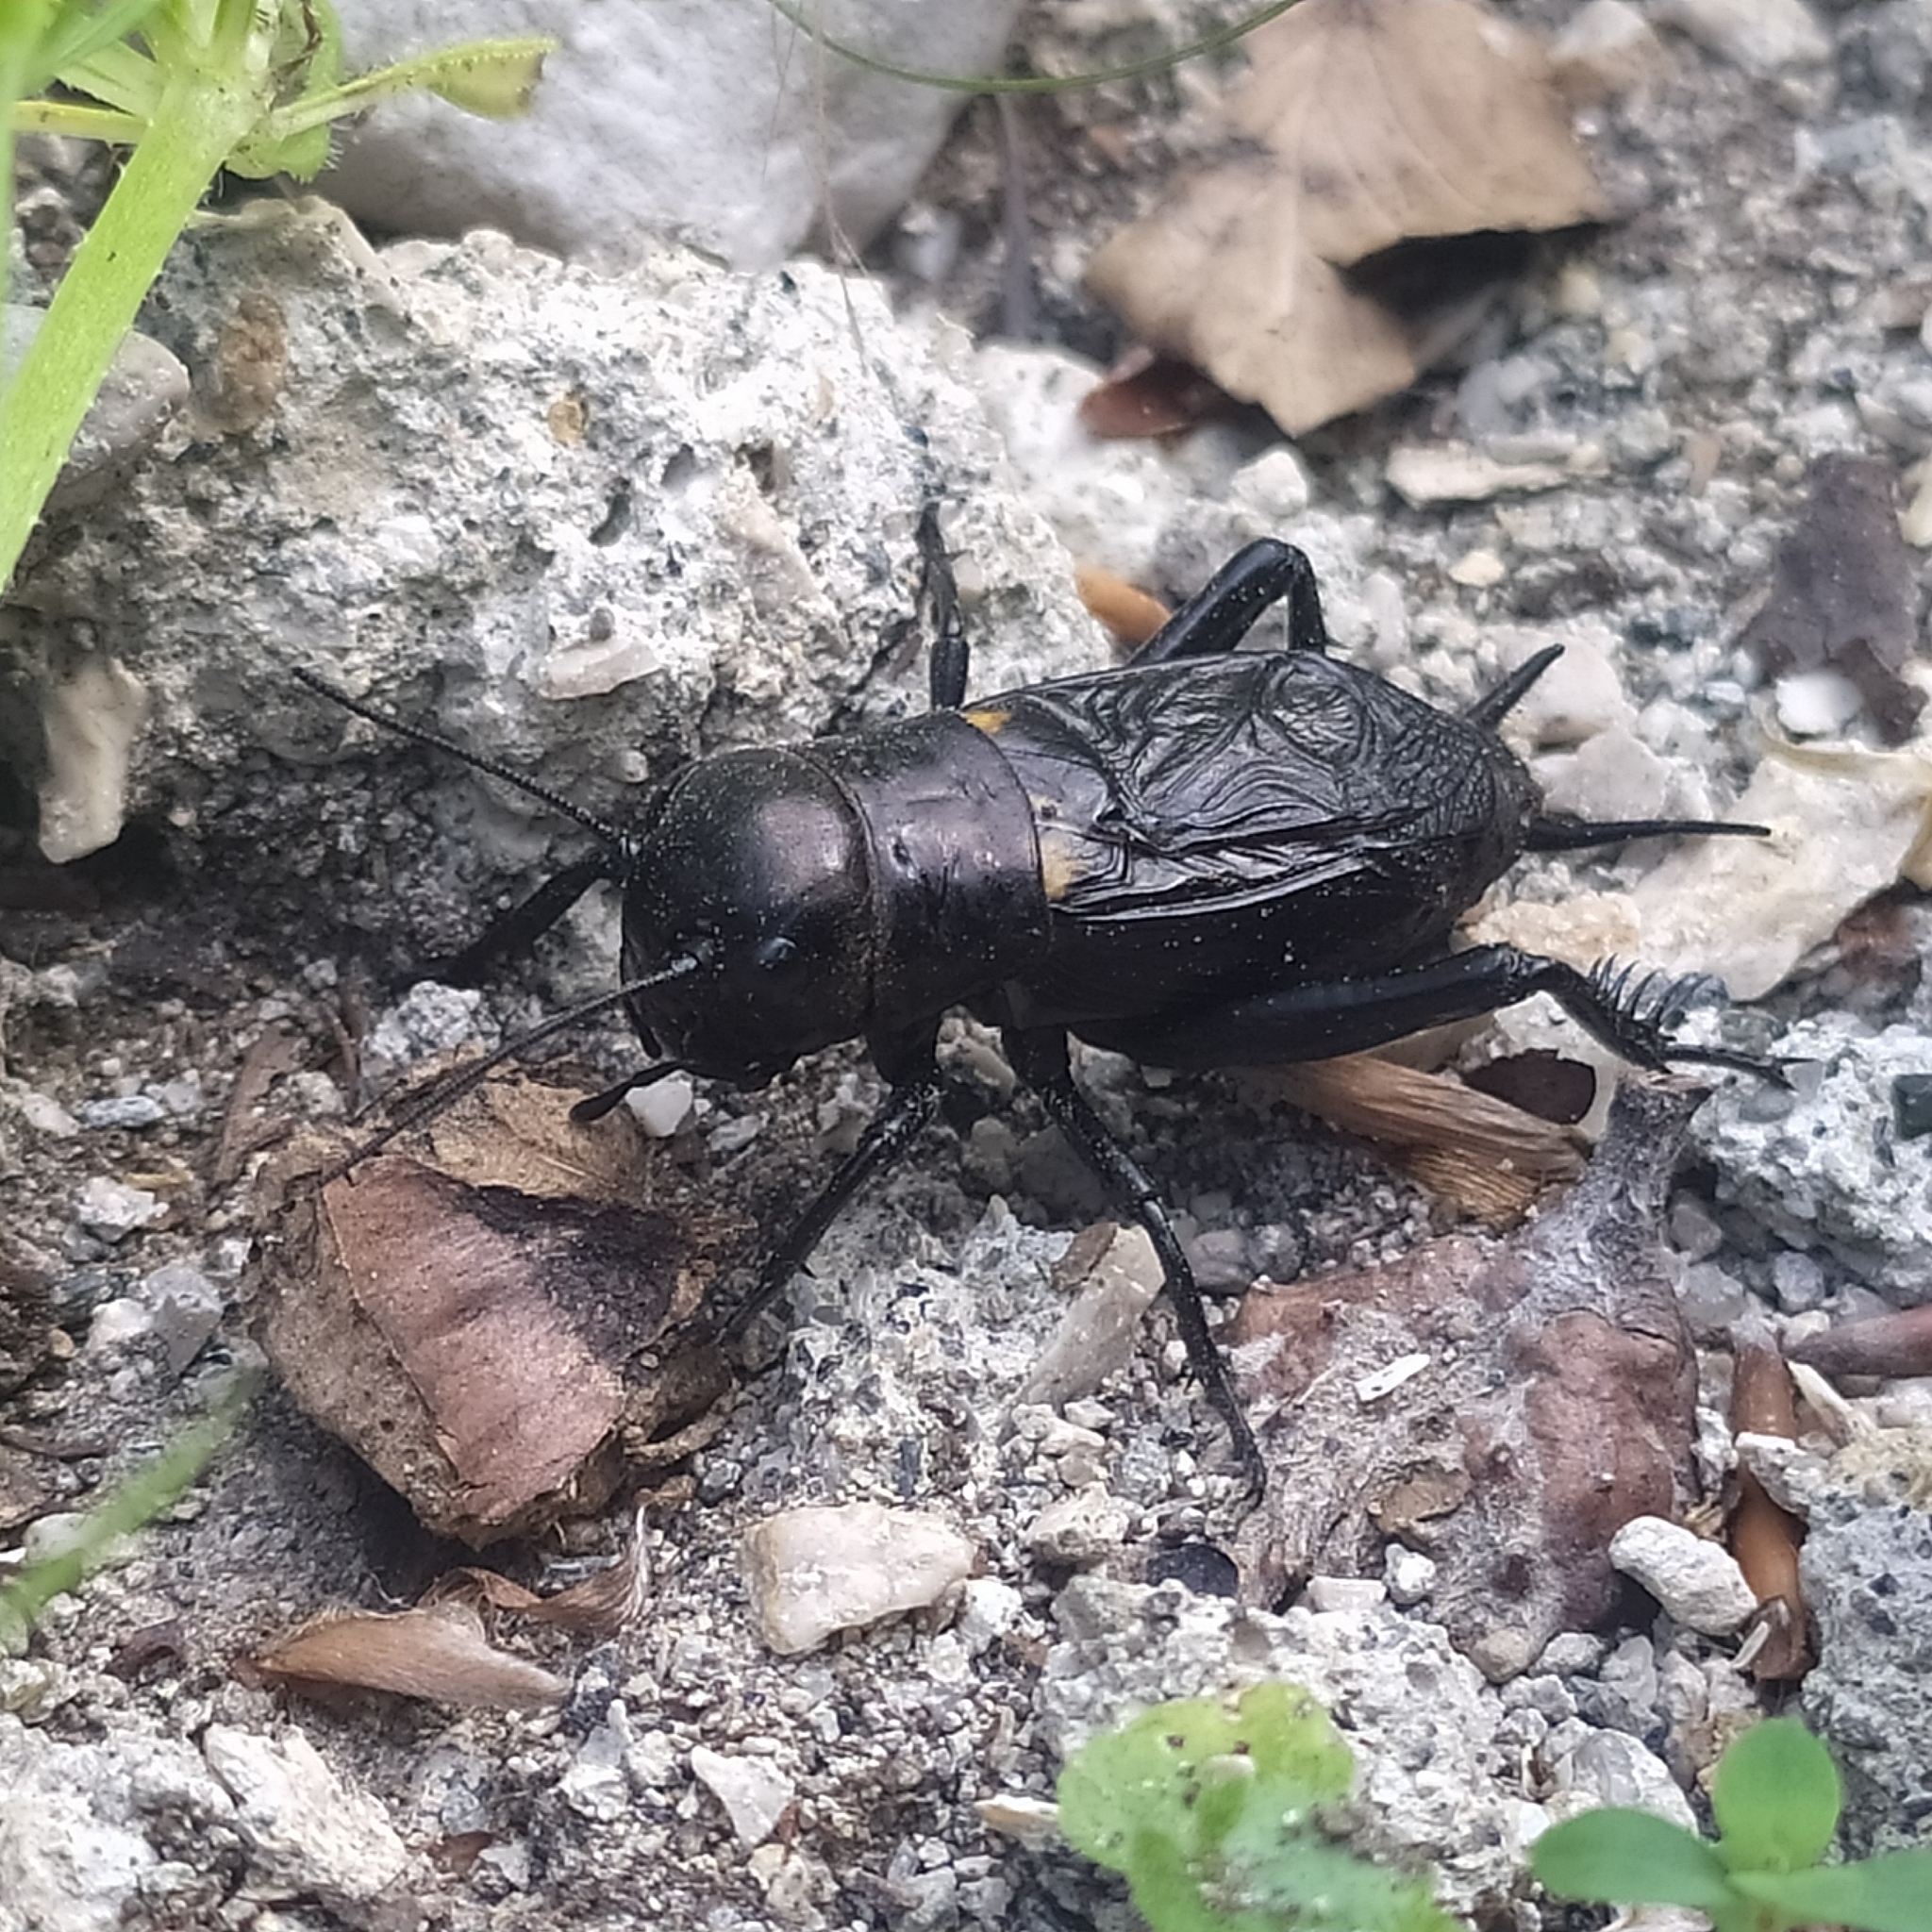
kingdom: Animalia
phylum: Arthropoda
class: Insecta
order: Orthoptera
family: Gryllidae
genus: Gryllus
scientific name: Gryllus campestris
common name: Field cricket
